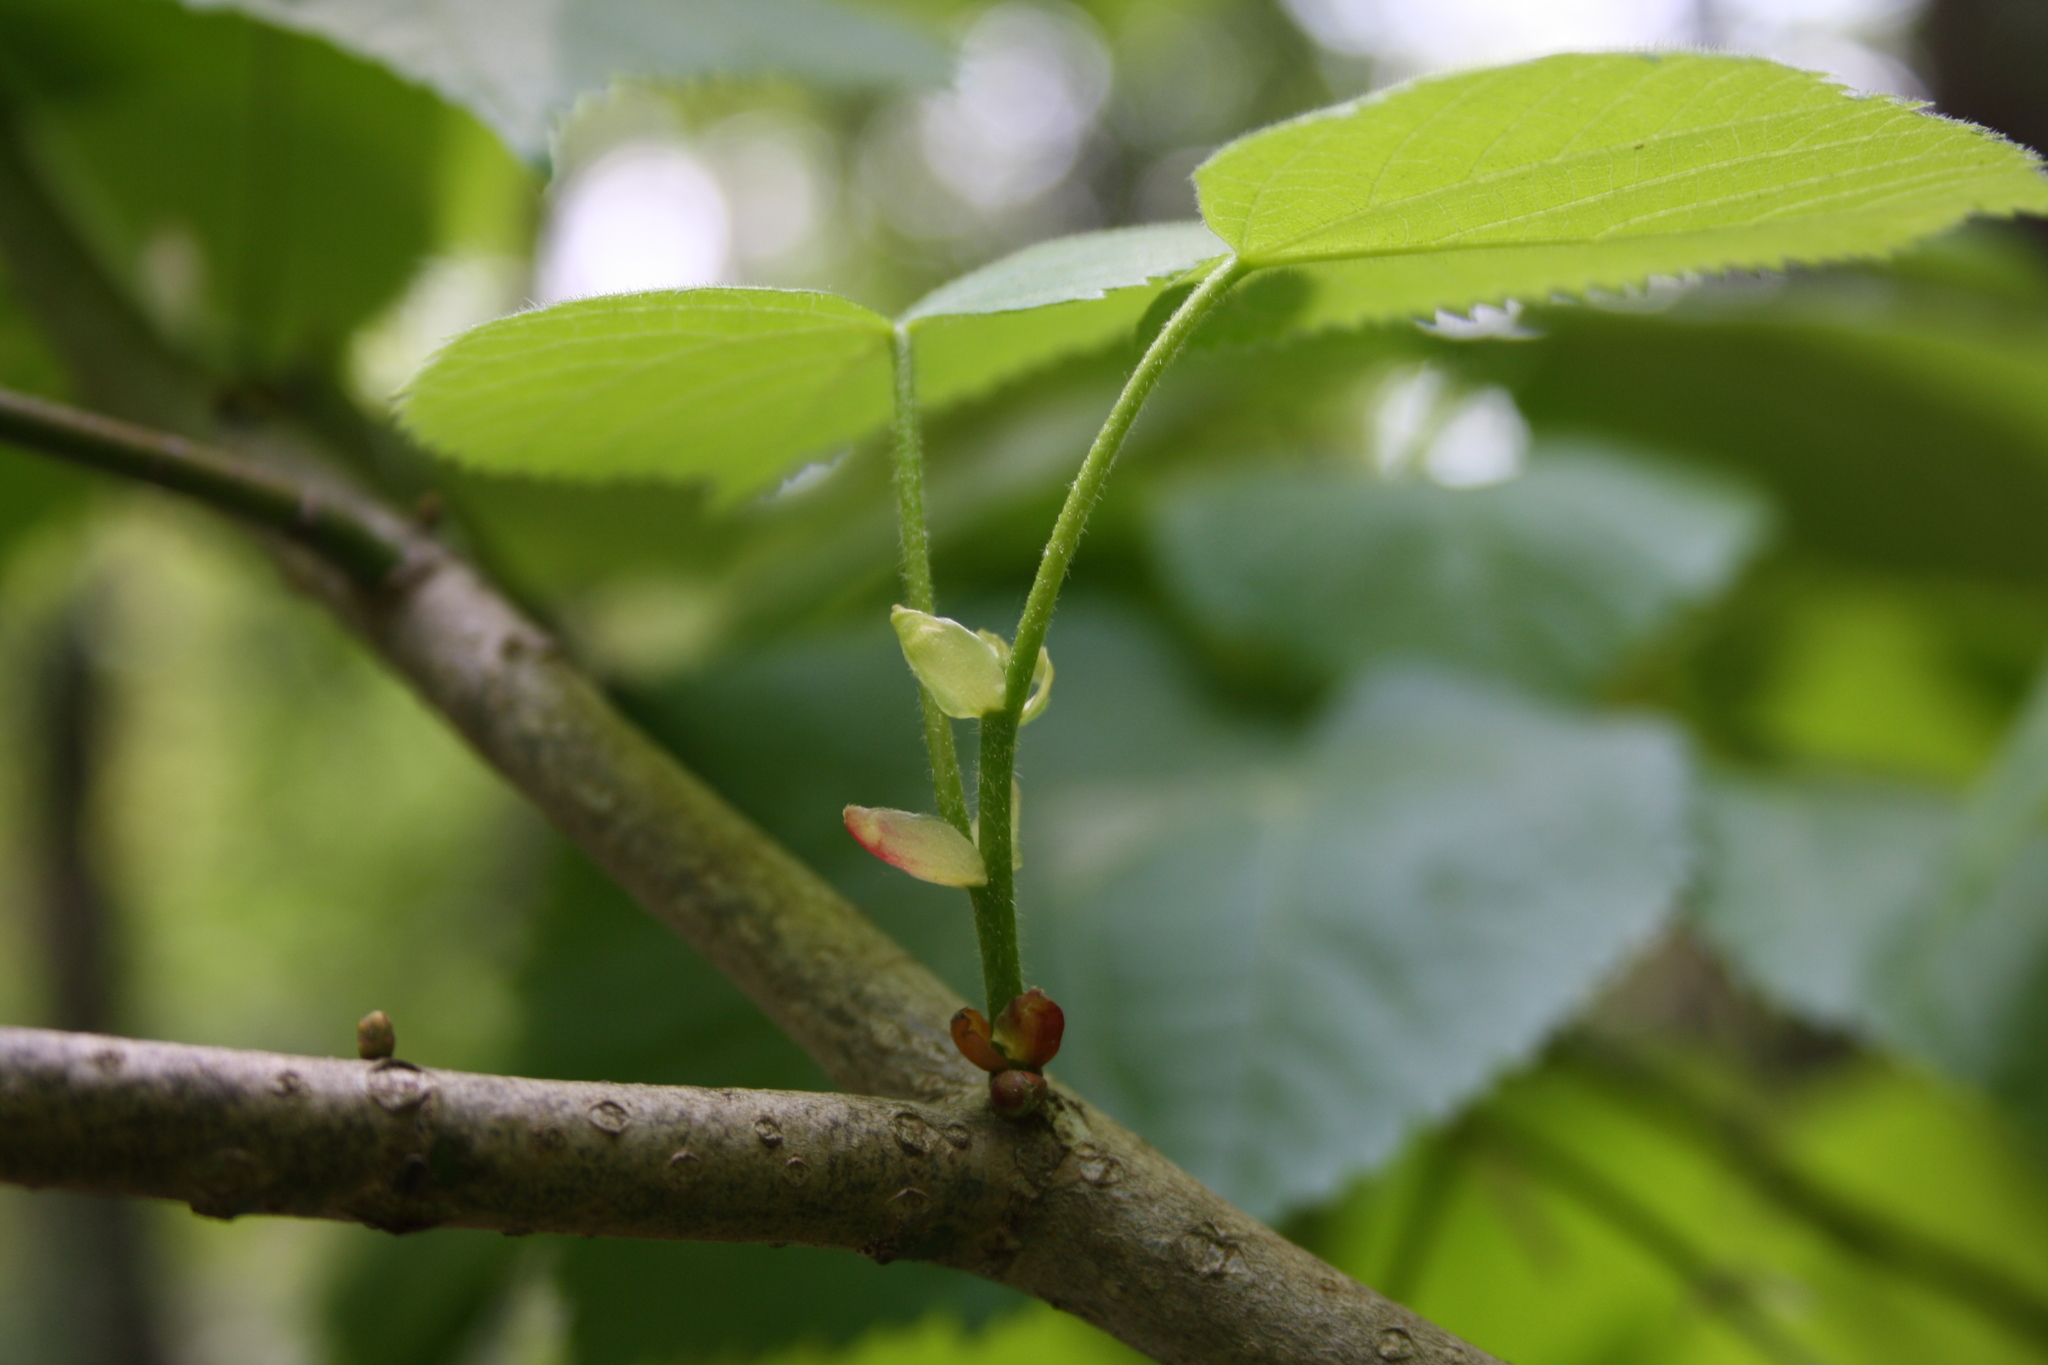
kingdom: Plantae
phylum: Tracheophyta
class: Magnoliopsida
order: Malvales
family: Malvaceae
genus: Tilia
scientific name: Tilia platyphyllos
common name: Large-leaved lime
